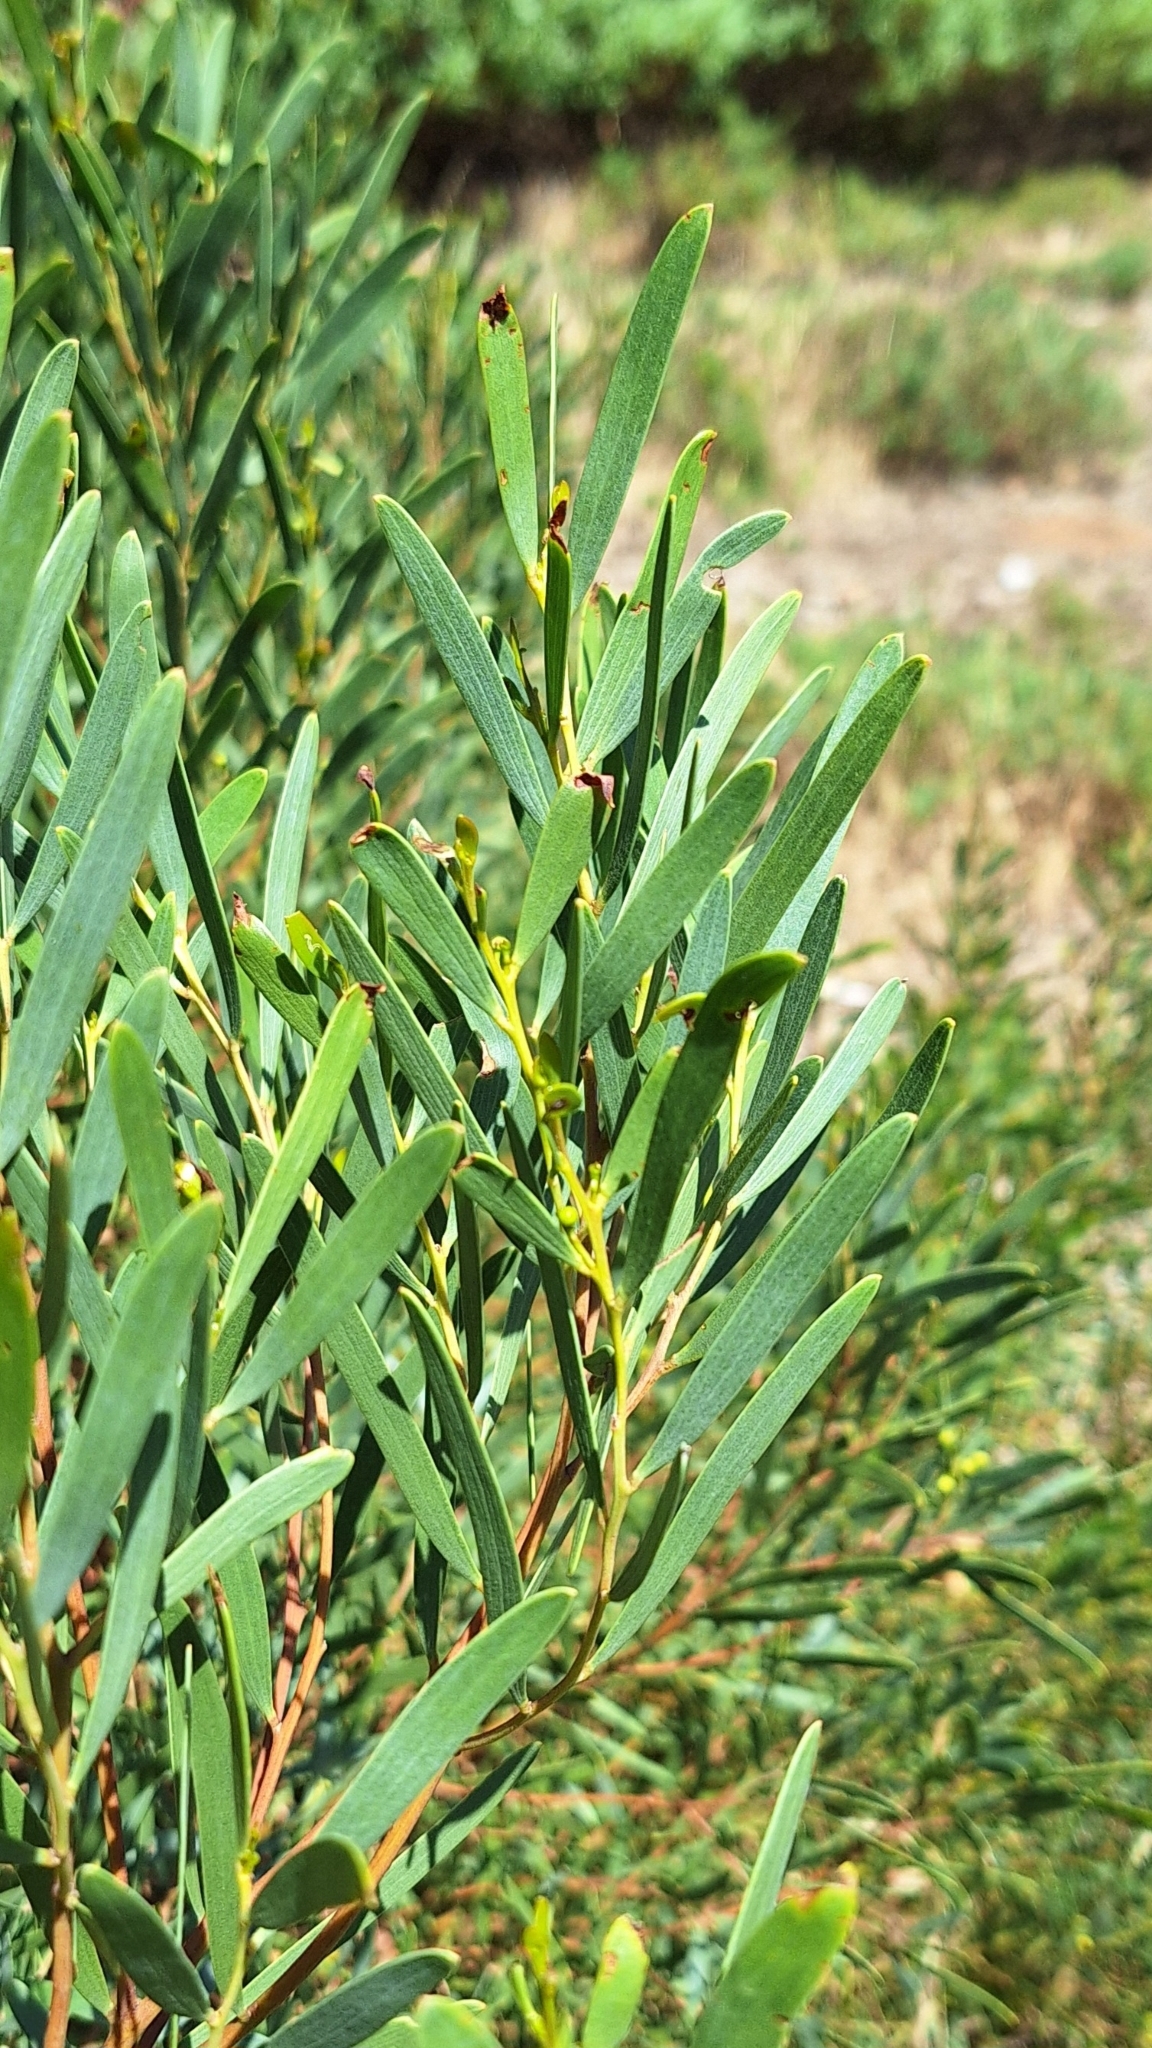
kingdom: Plantae
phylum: Tracheophyta
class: Magnoliopsida
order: Fabales
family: Fabaceae
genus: Acacia
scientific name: Acacia cyclops
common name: Coastal wattle
